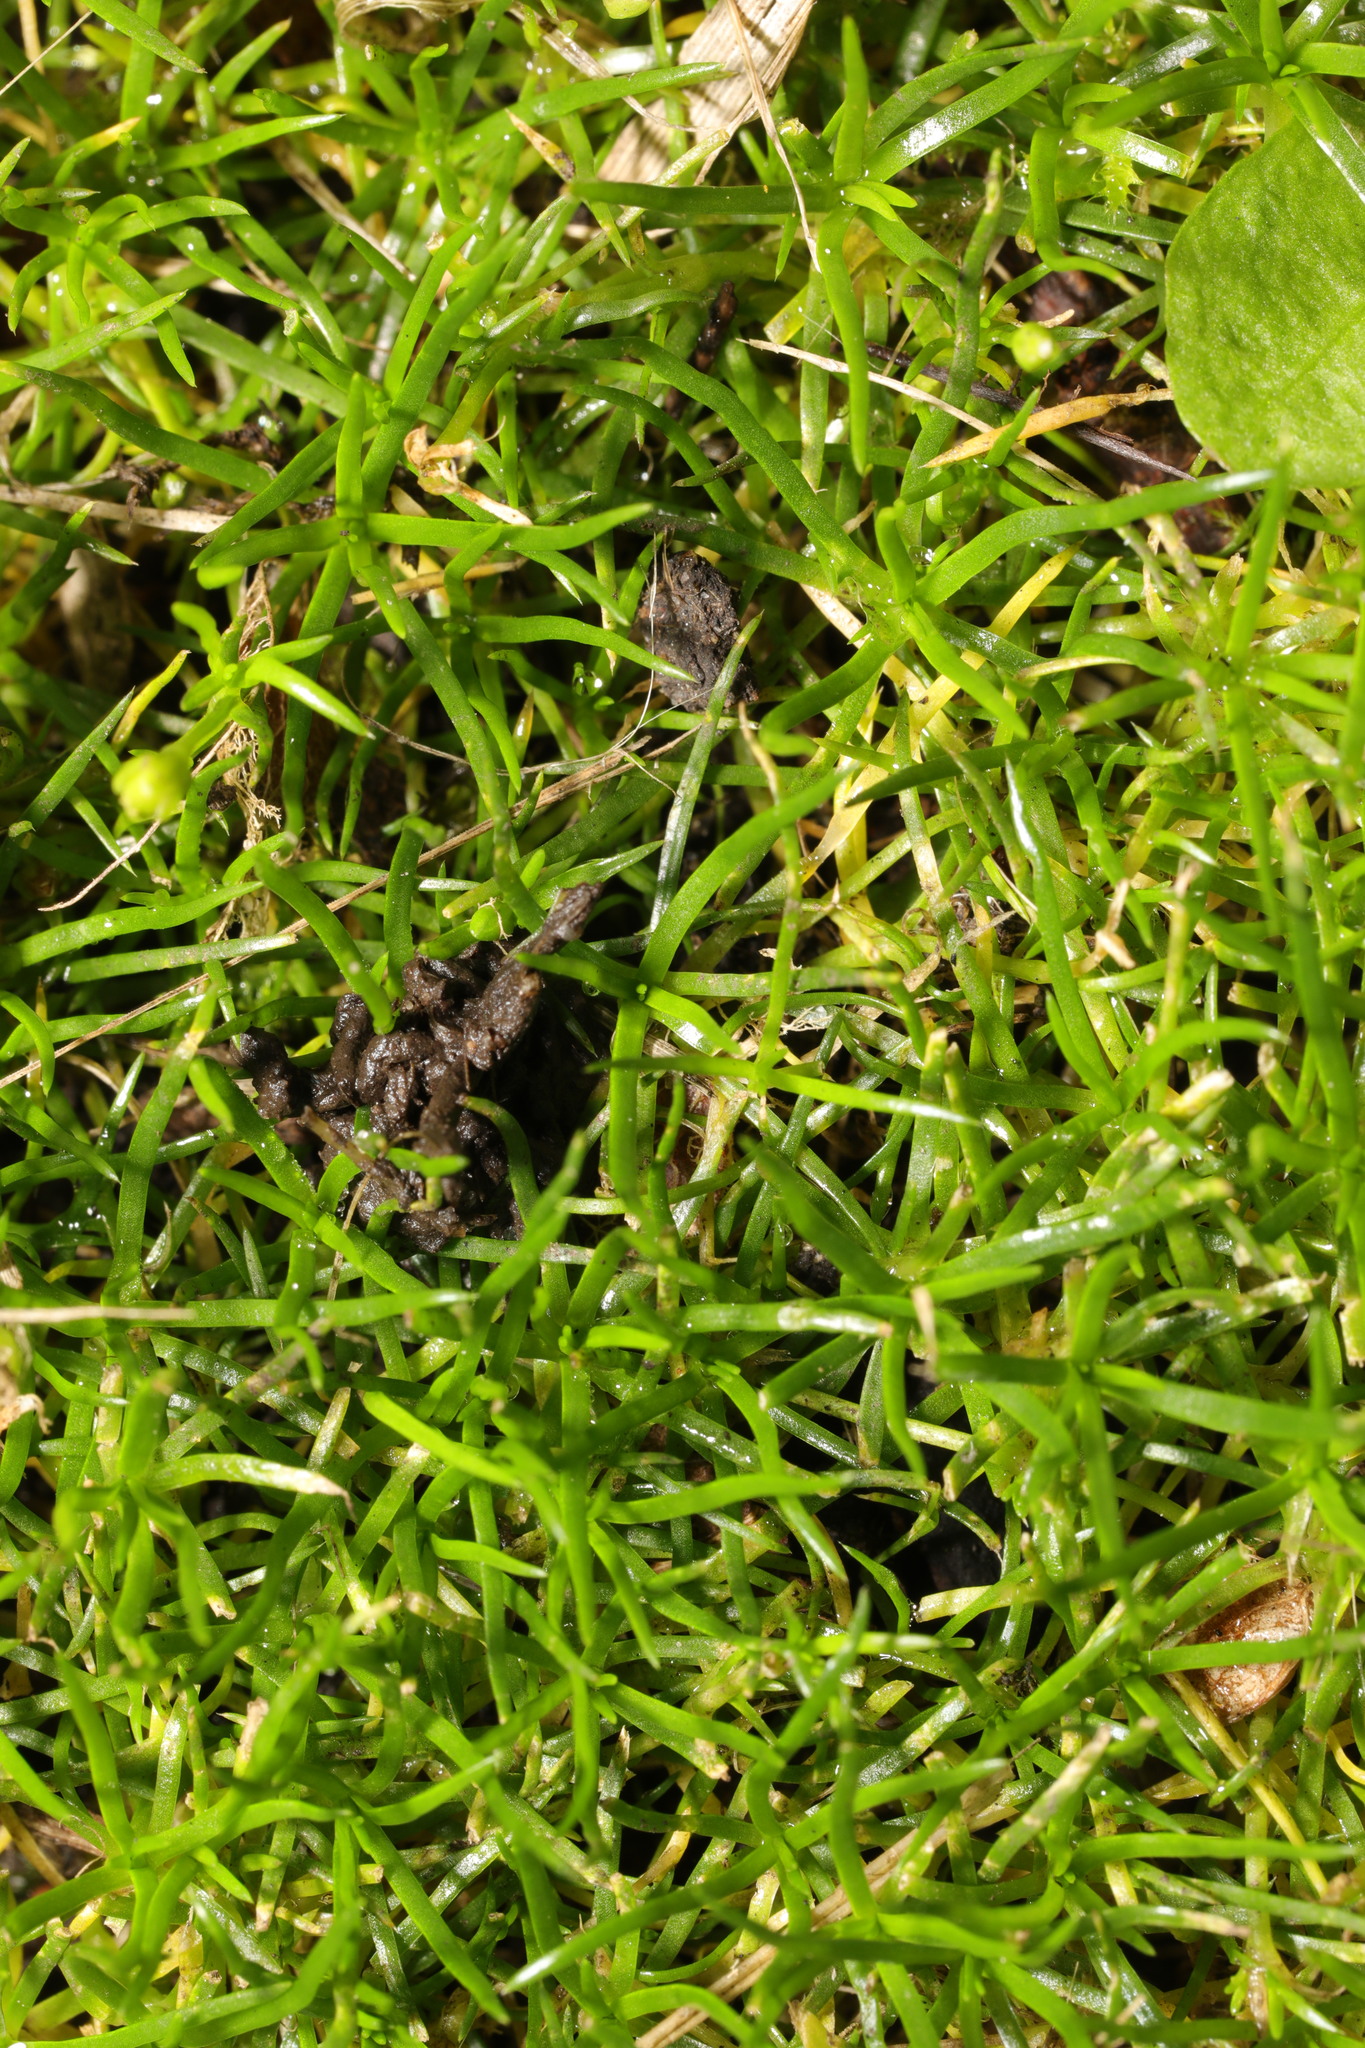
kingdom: Plantae
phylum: Tracheophyta
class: Magnoliopsida
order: Caryophyllales
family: Caryophyllaceae
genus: Sagina
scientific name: Sagina procumbens
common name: Procumbent pearlwort
